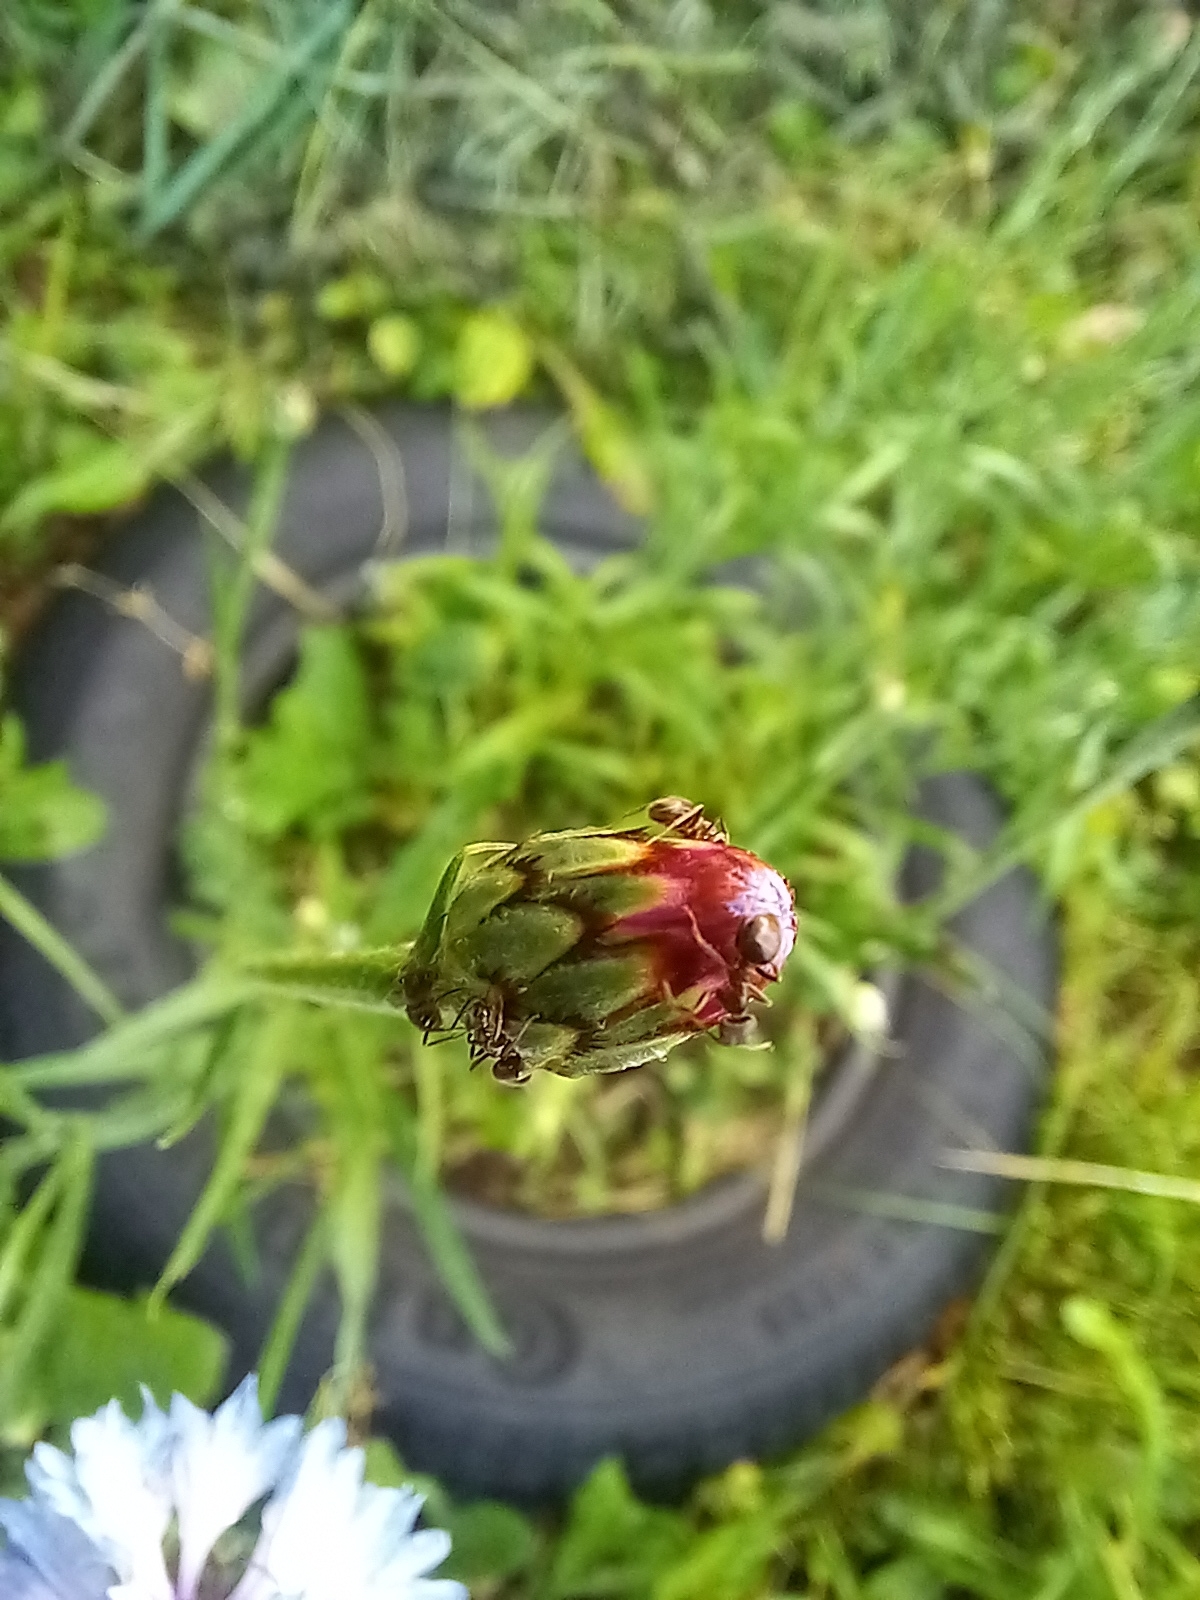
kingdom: Plantae
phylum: Tracheophyta
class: Magnoliopsida
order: Asterales
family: Asteraceae
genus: Centaurea
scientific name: Centaurea cyanus
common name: Cornflower
